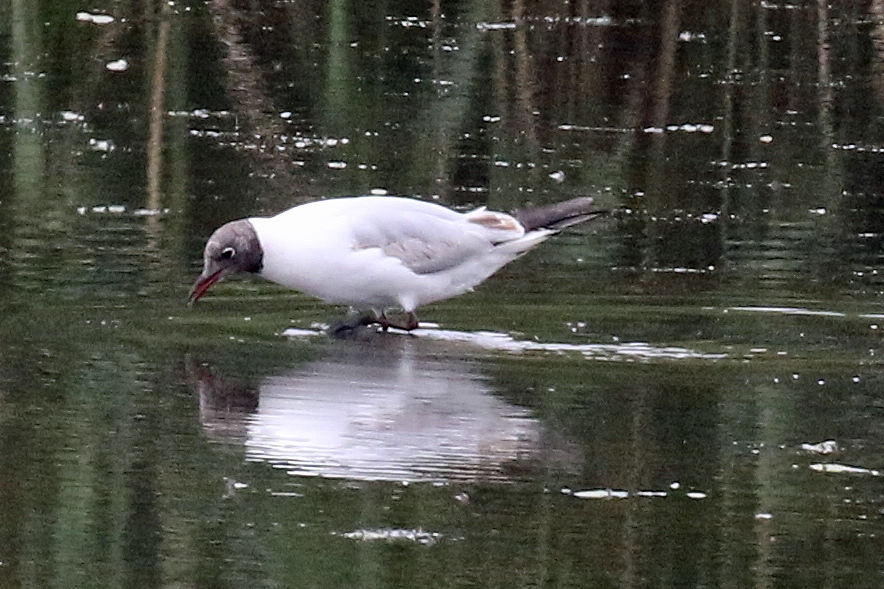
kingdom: Animalia
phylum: Chordata
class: Aves
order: Charadriiformes
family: Laridae
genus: Chroicocephalus
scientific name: Chroicocephalus ridibundus
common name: Black-headed gull
